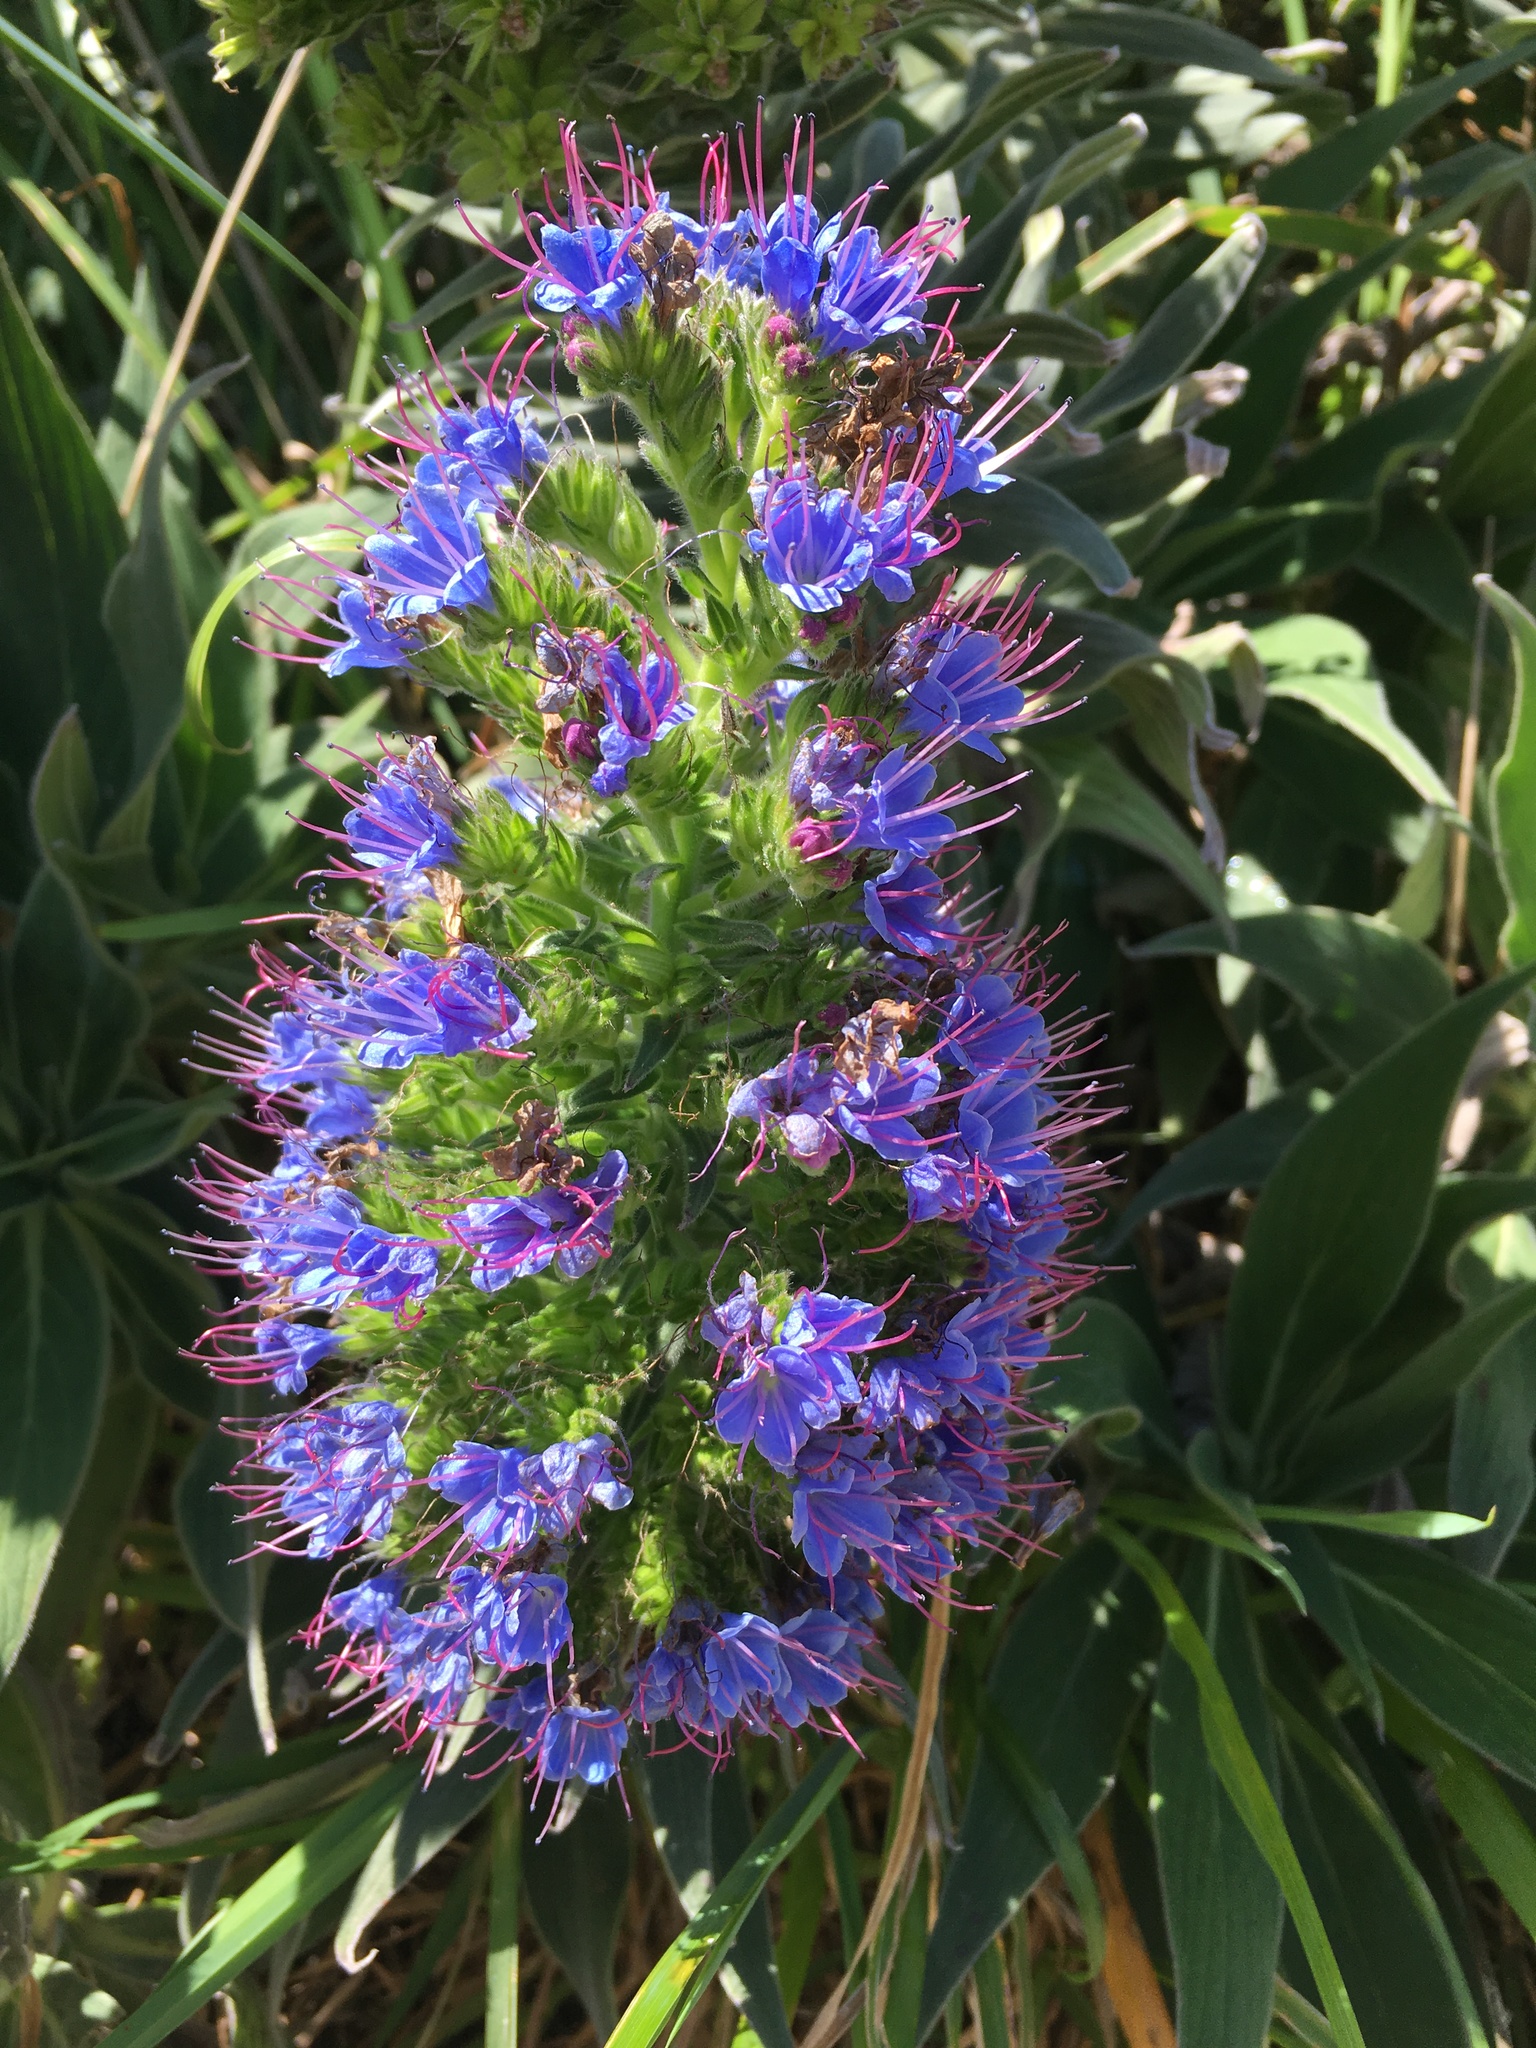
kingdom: Plantae
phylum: Tracheophyta
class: Magnoliopsida
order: Boraginales
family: Boraginaceae
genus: Echium
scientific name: Echium candicans
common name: Pride of madeira
